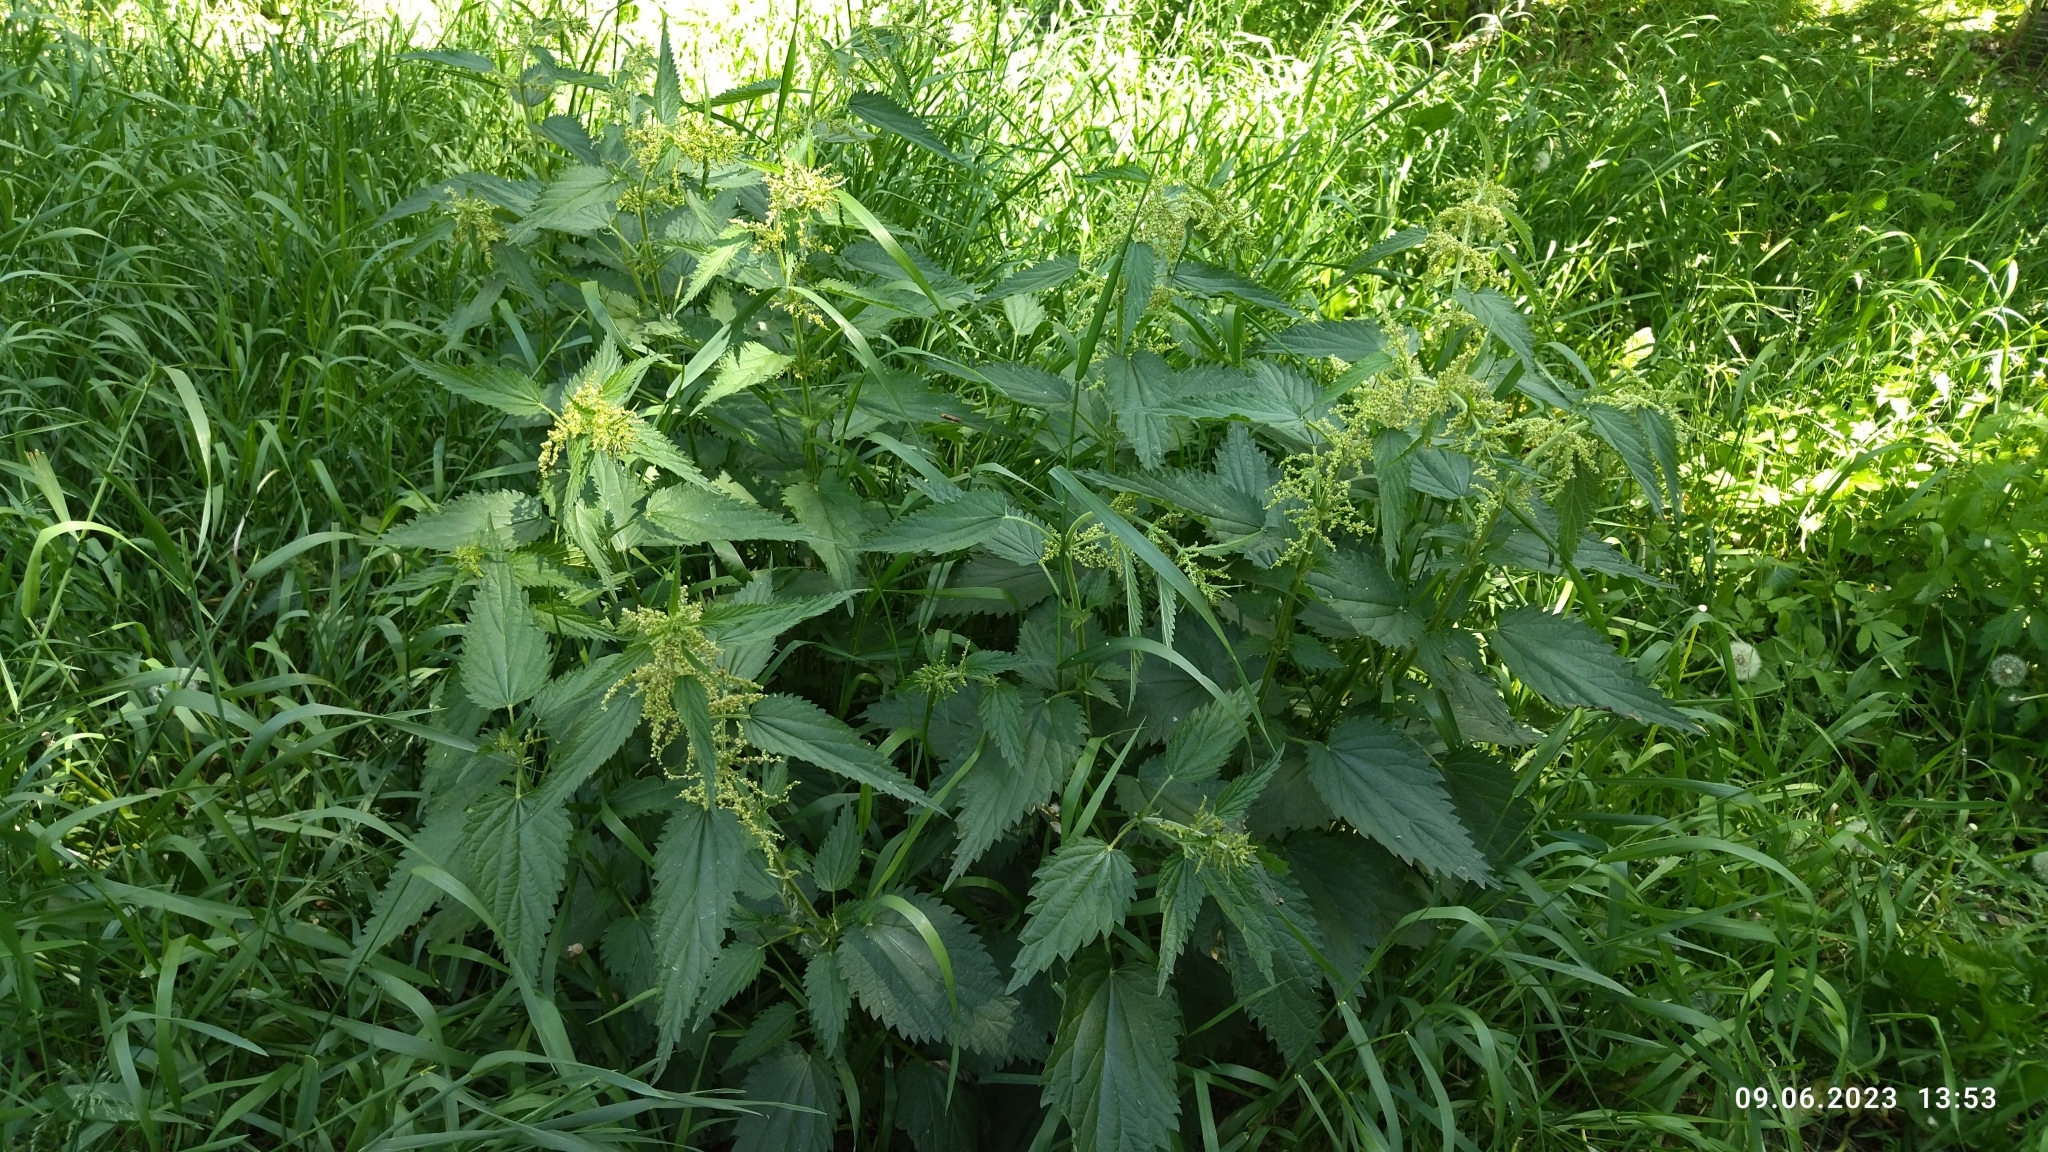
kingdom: Plantae
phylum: Tracheophyta
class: Magnoliopsida
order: Rosales
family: Urticaceae
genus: Urtica
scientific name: Urtica dioica
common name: Common nettle
